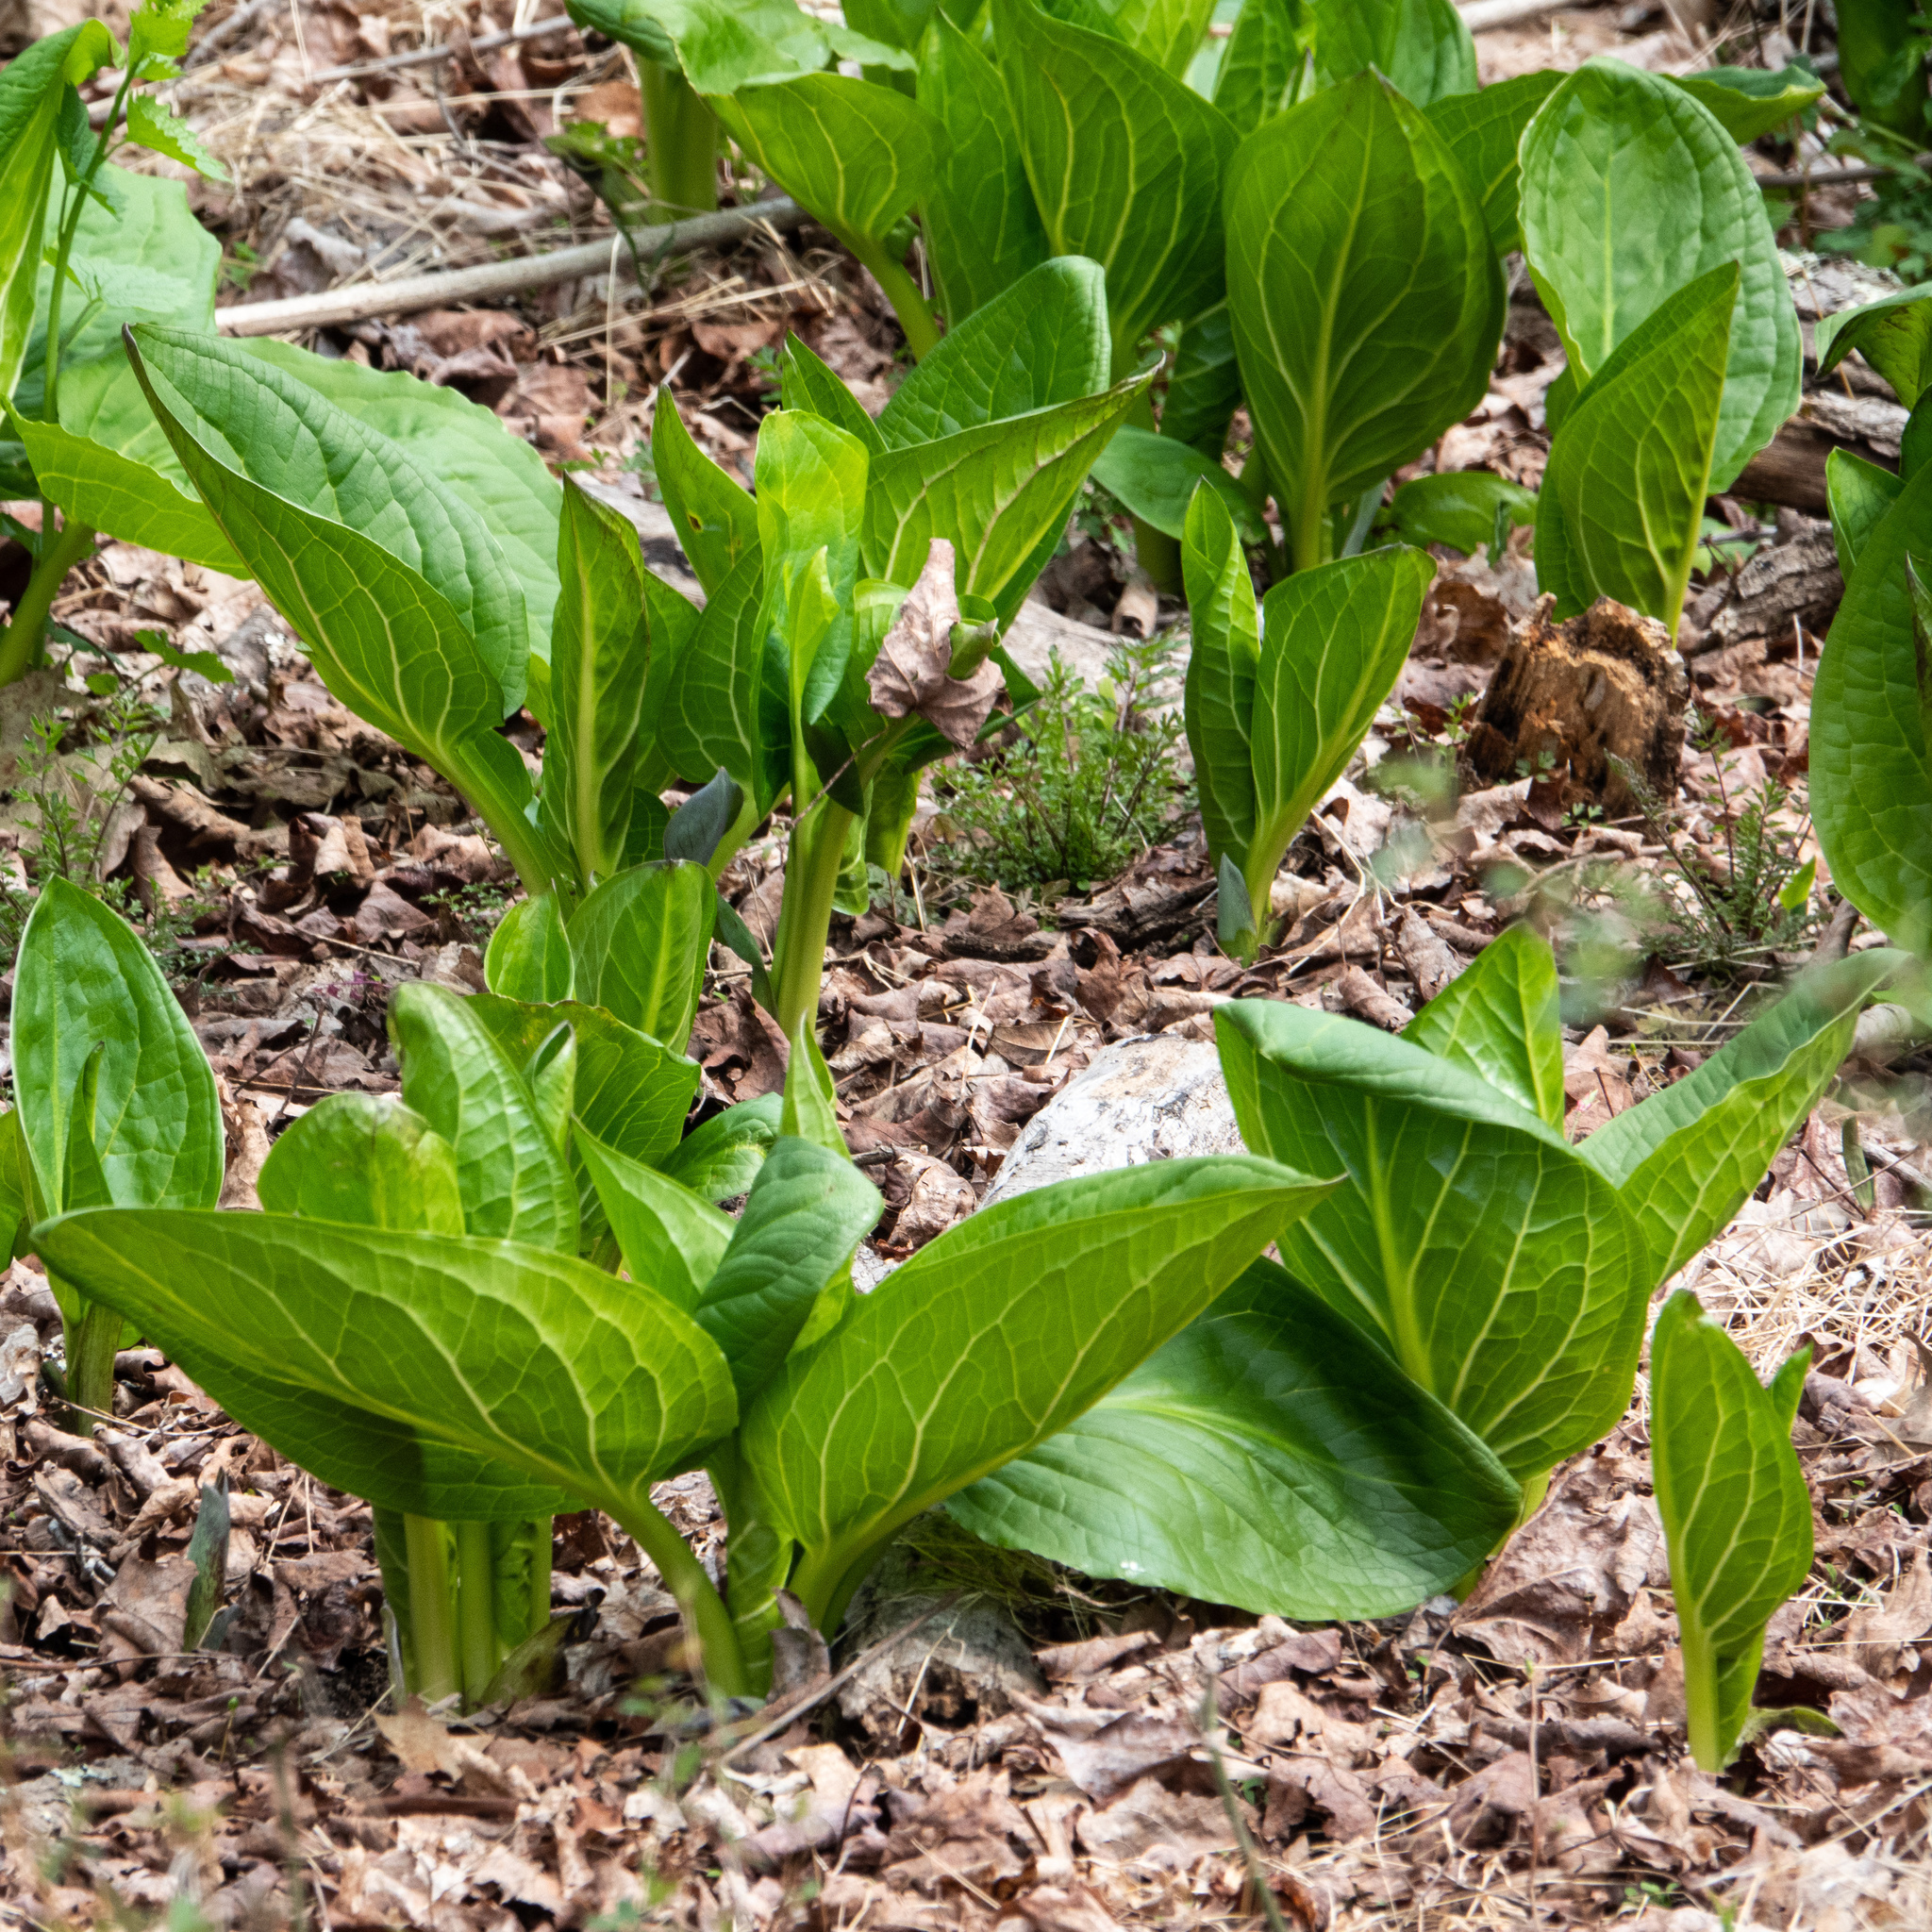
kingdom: Plantae
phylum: Tracheophyta
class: Liliopsida
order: Alismatales
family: Araceae
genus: Symplocarpus
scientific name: Symplocarpus foetidus
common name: Eastern skunk cabbage
